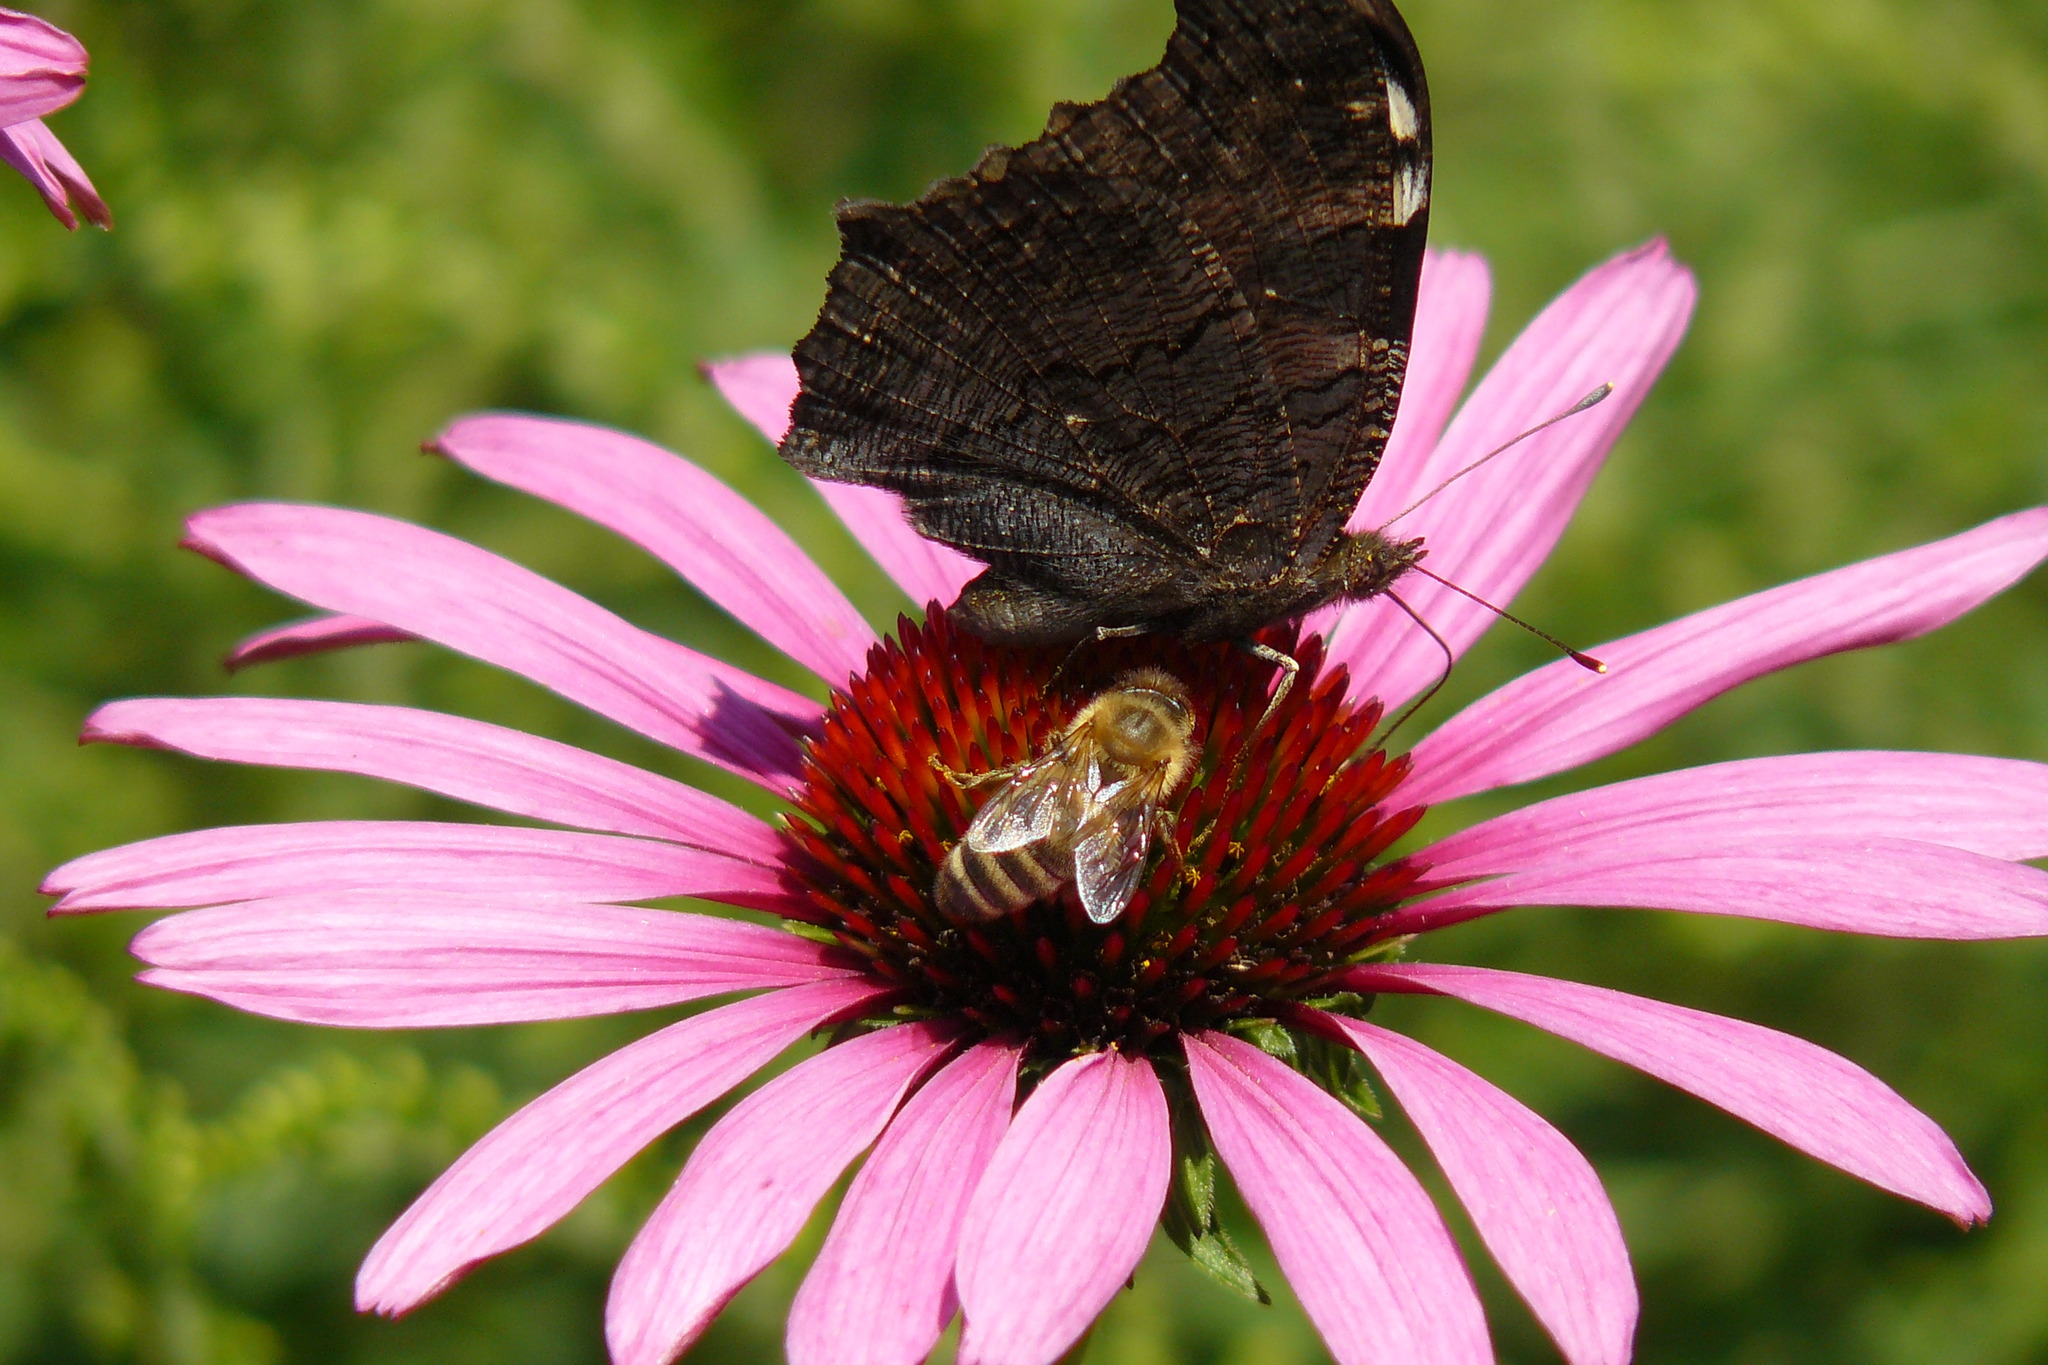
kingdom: Animalia
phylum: Arthropoda
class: Insecta
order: Lepidoptera
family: Nymphalidae
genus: Aglais
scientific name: Aglais io
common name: Peacock
